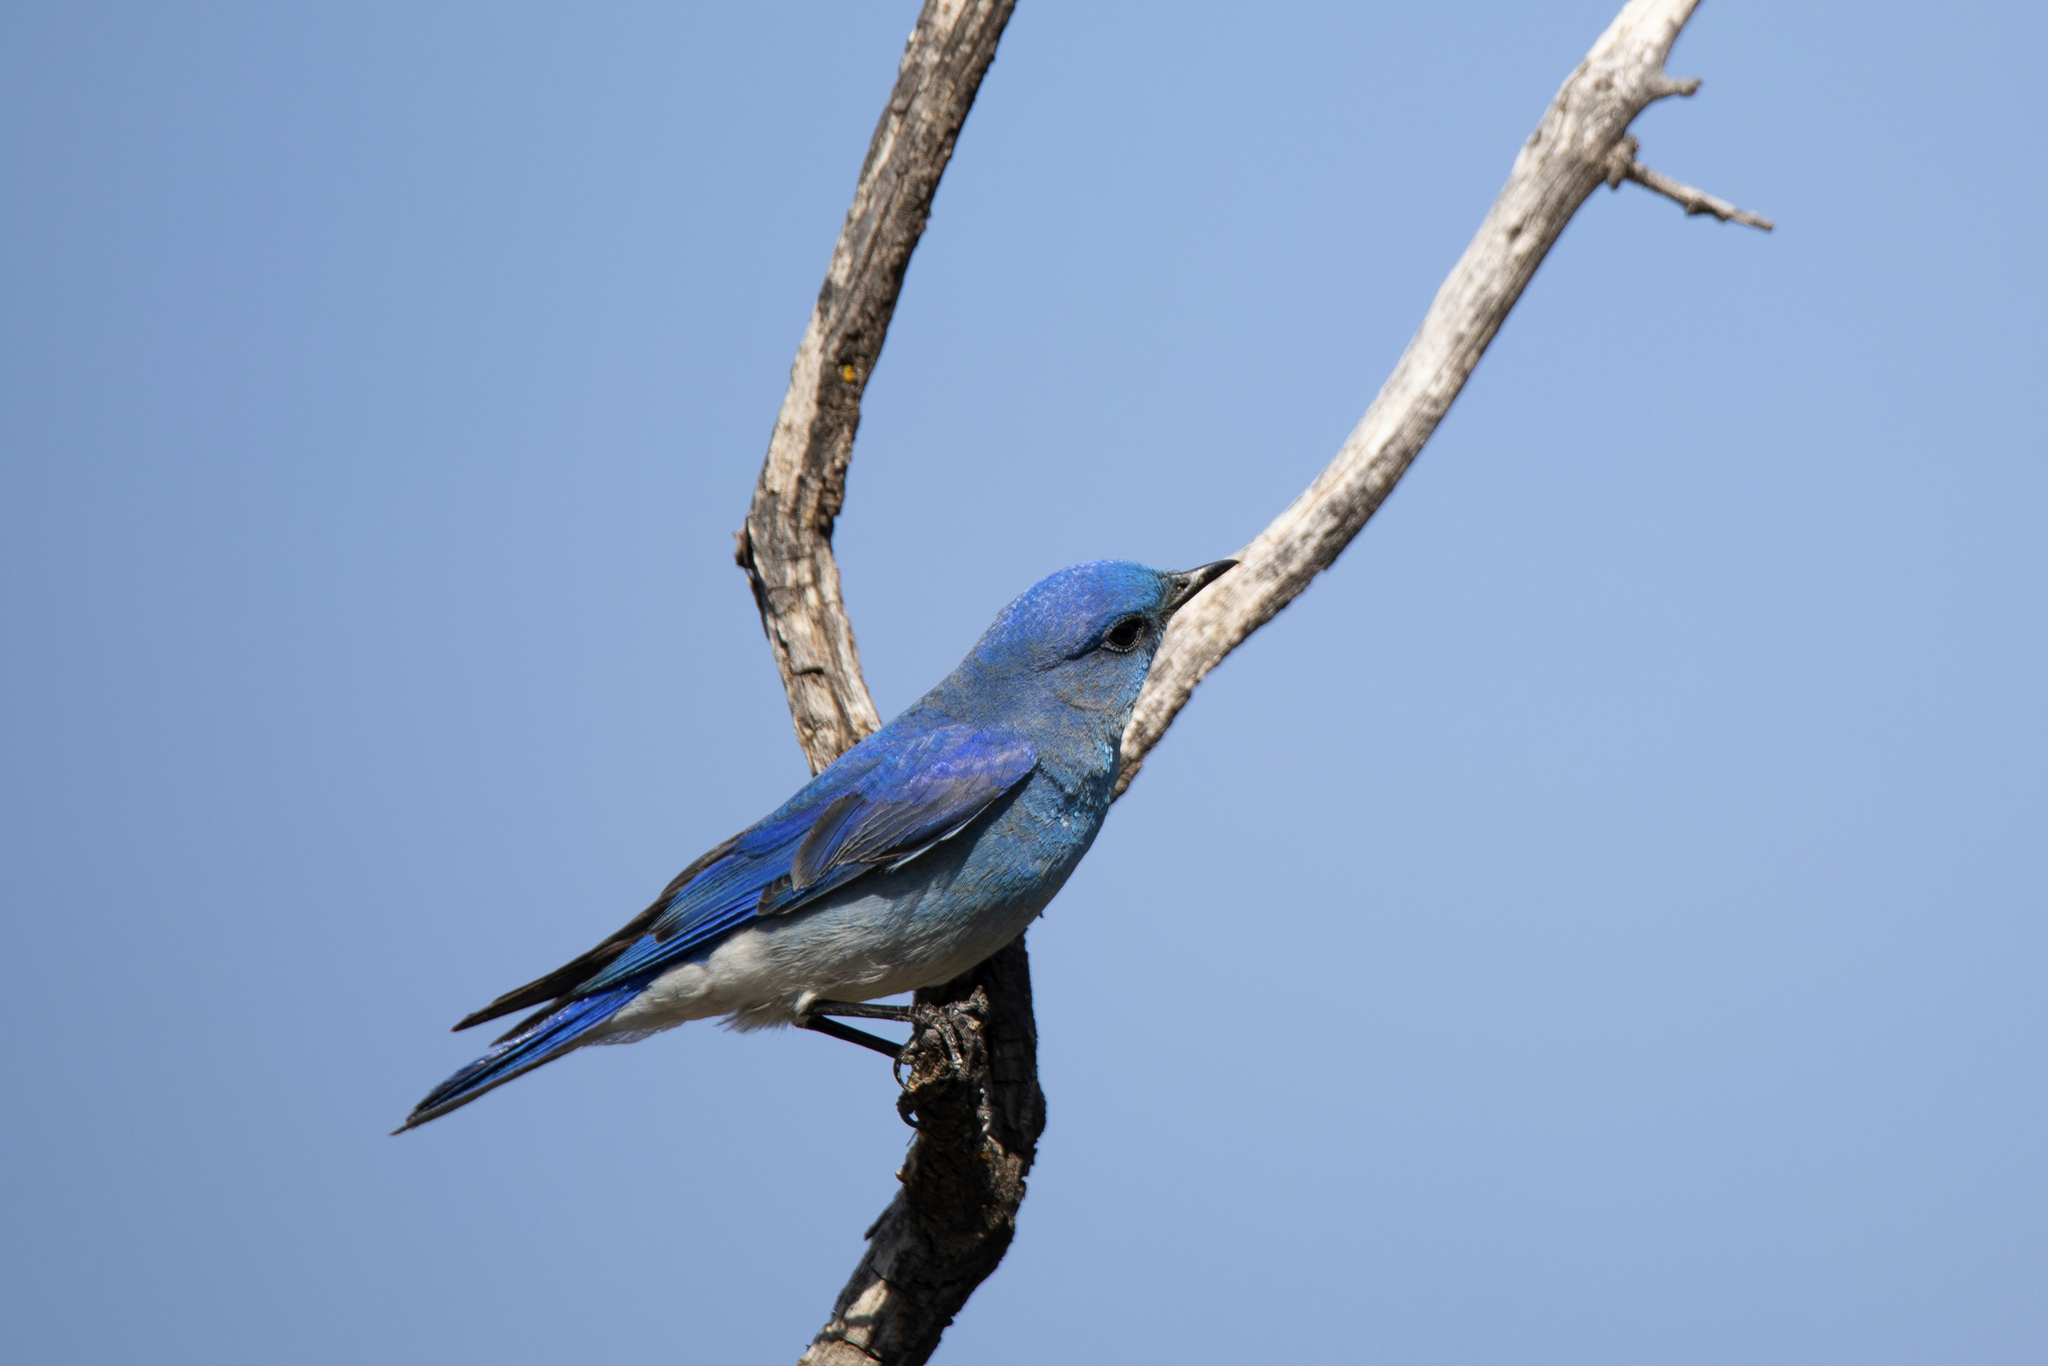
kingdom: Animalia
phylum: Chordata
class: Aves
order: Passeriformes
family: Turdidae
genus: Sialia
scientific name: Sialia currucoides
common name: Mountain bluebird
